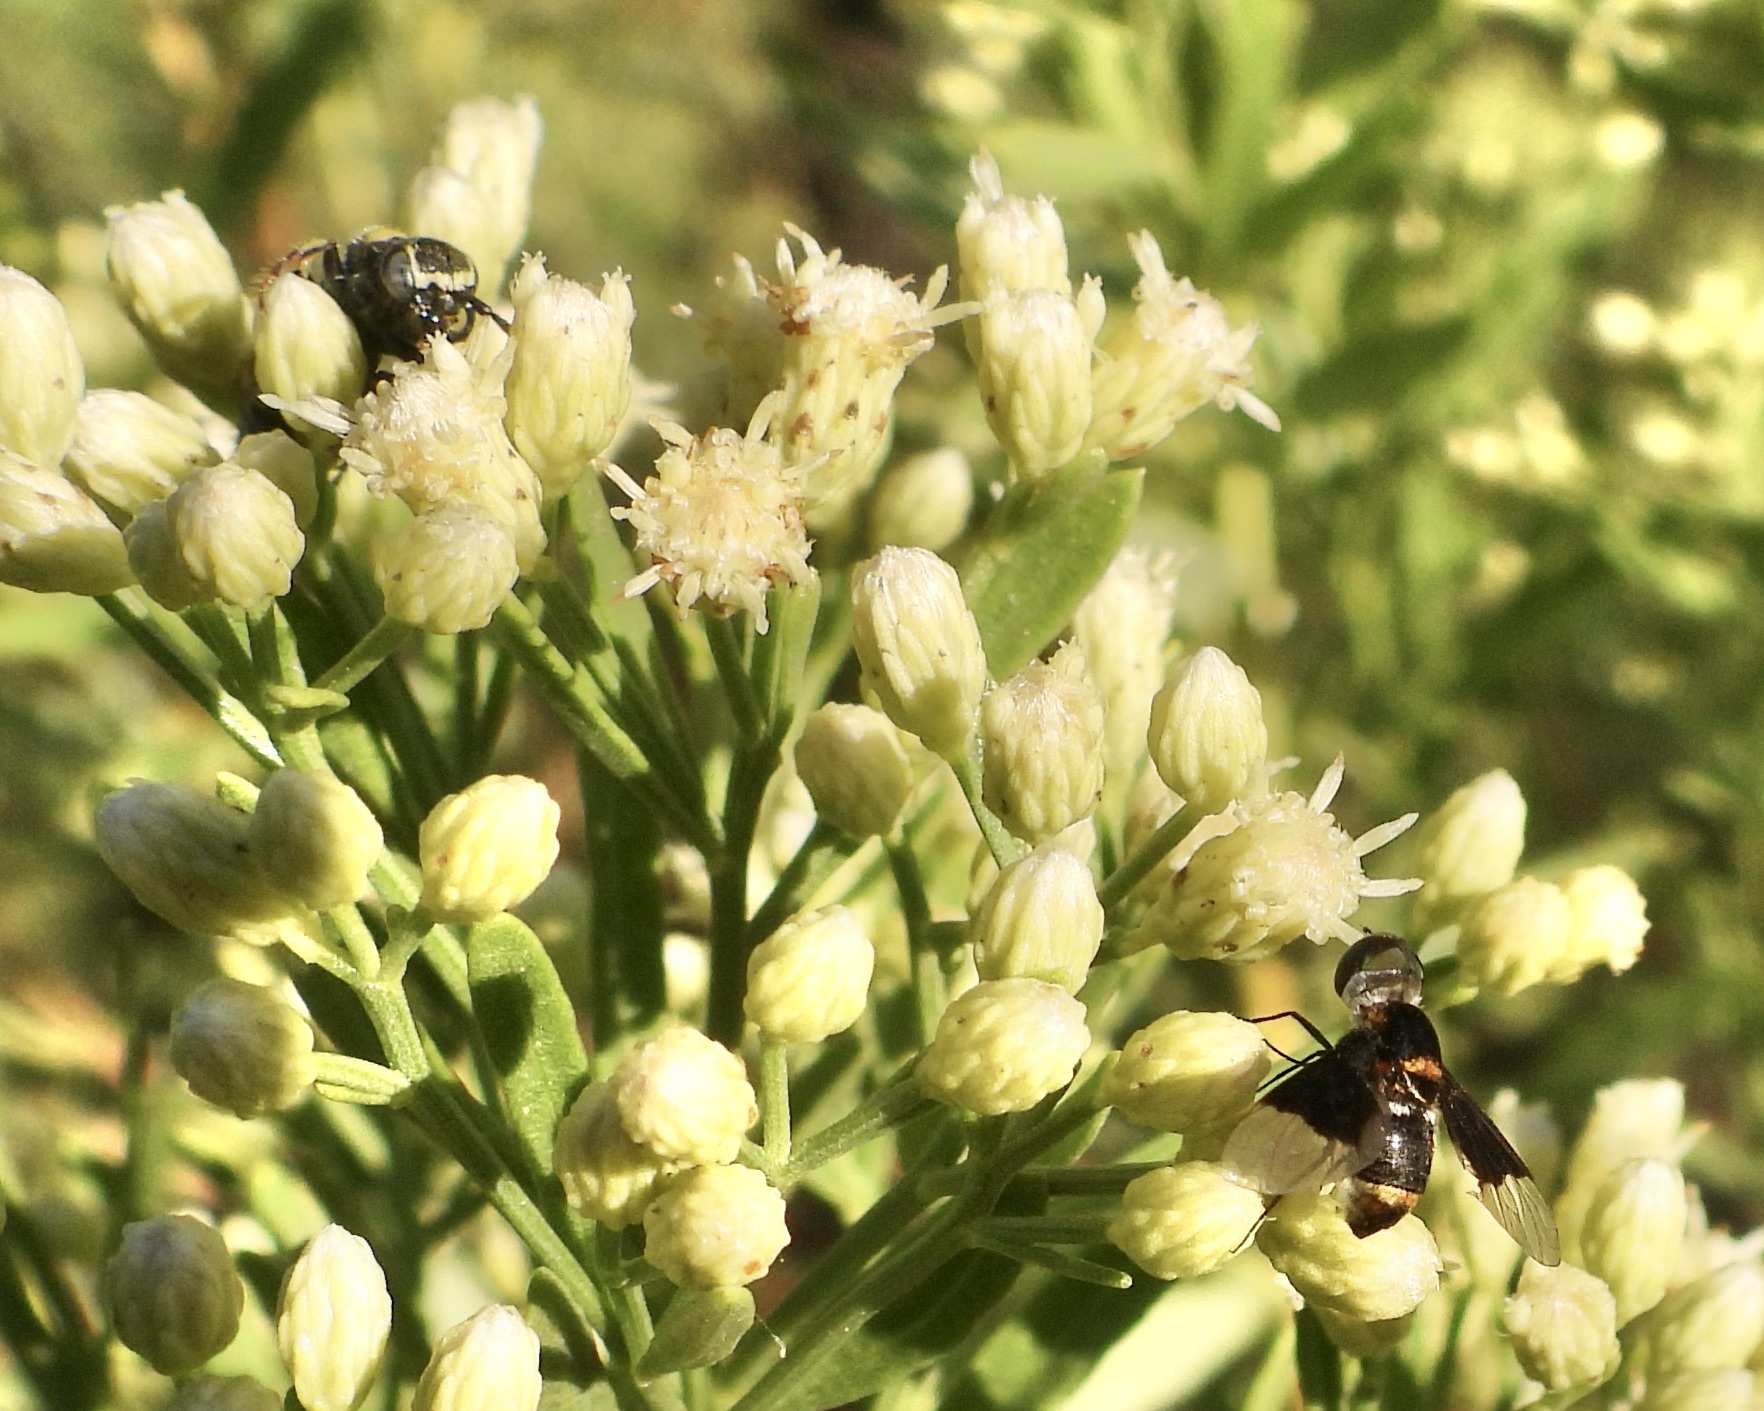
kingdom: Animalia
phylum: Arthropoda
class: Insecta
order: Diptera
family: Bombyliidae
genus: Ins
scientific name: Ins curtus
